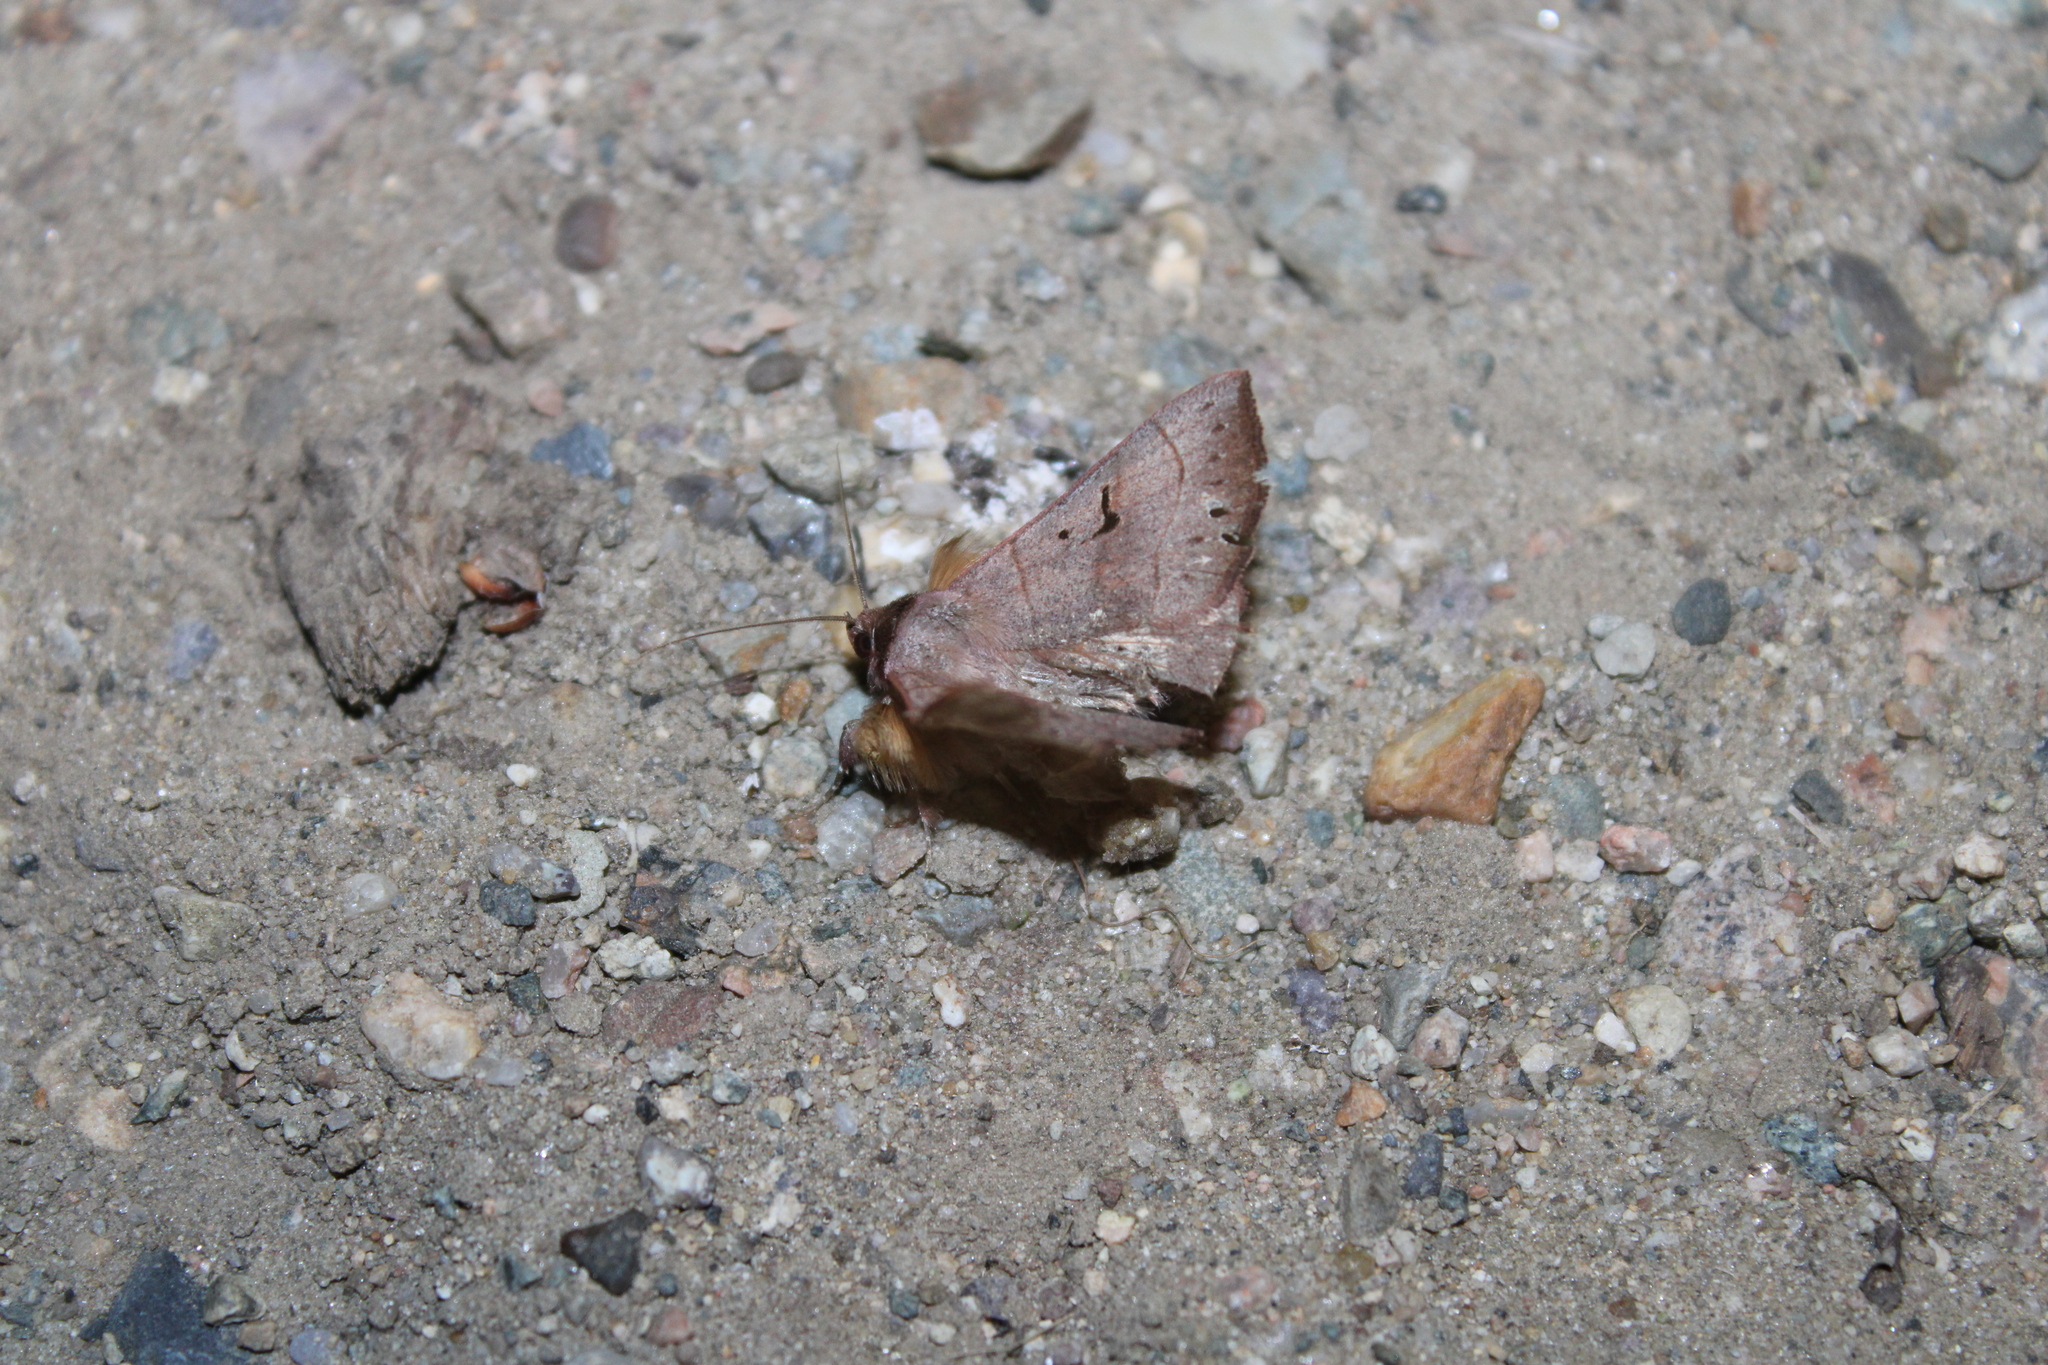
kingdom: Animalia
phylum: Arthropoda
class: Insecta
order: Lepidoptera
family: Erebidae
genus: Panopoda
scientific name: Panopoda carneicosta
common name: Brown panopoda moth
